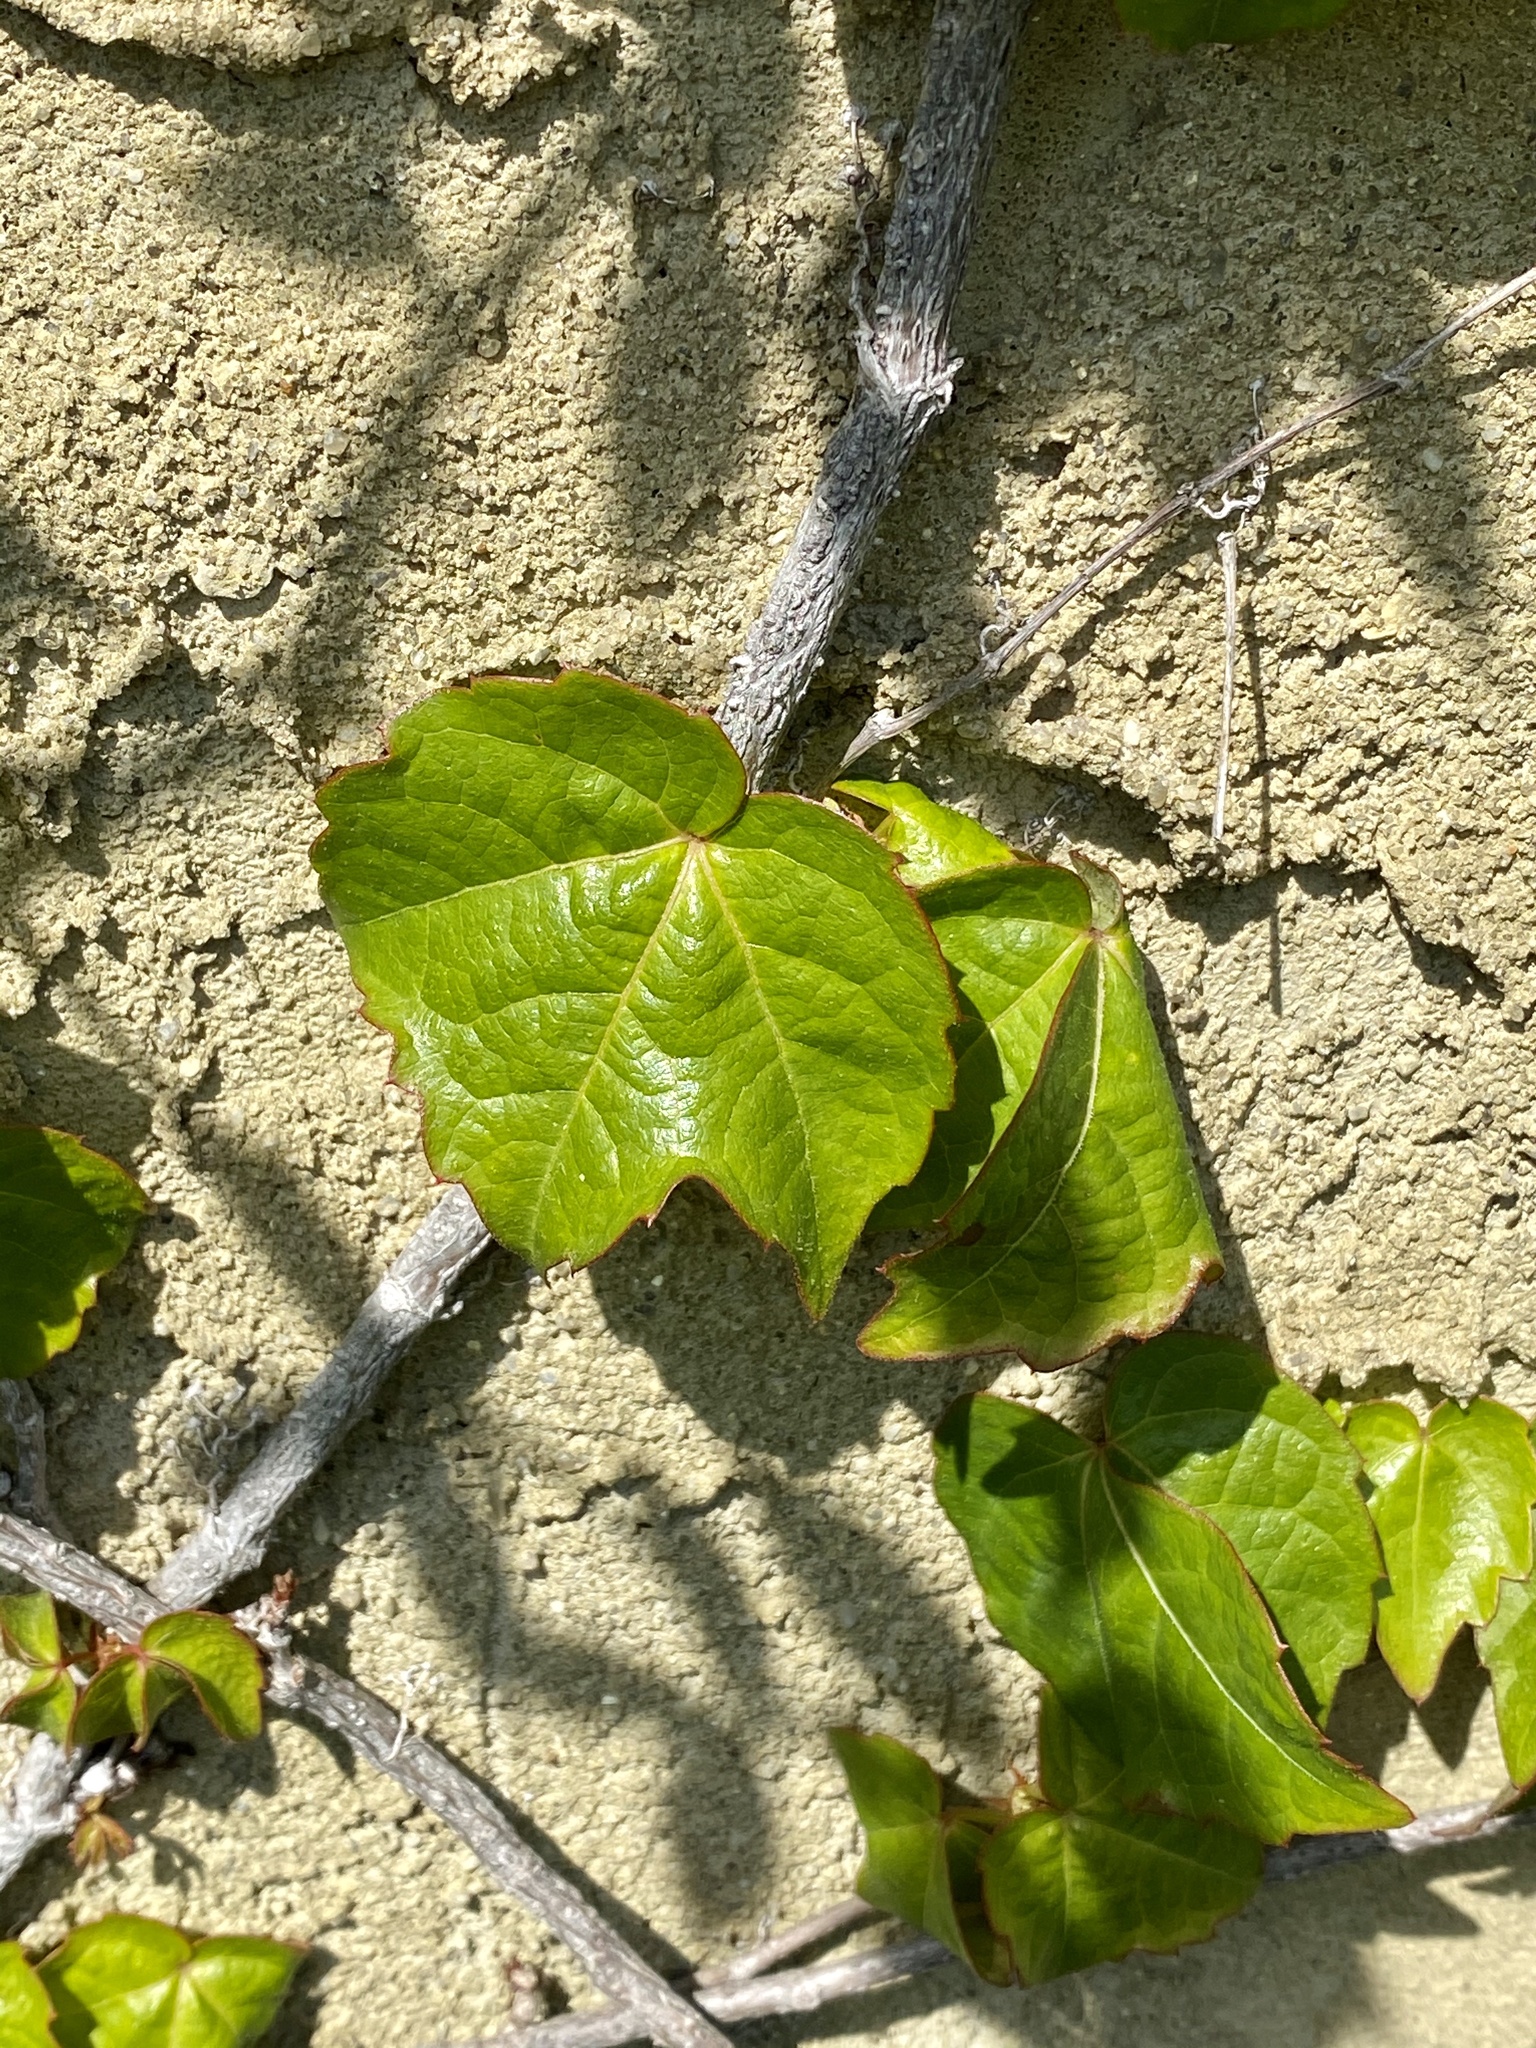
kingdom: Plantae
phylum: Tracheophyta
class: Magnoliopsida
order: Vitales
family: Vitaceae
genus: Parthenocissus
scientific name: Parthenocissus tricuspidata
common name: Boston ivy
